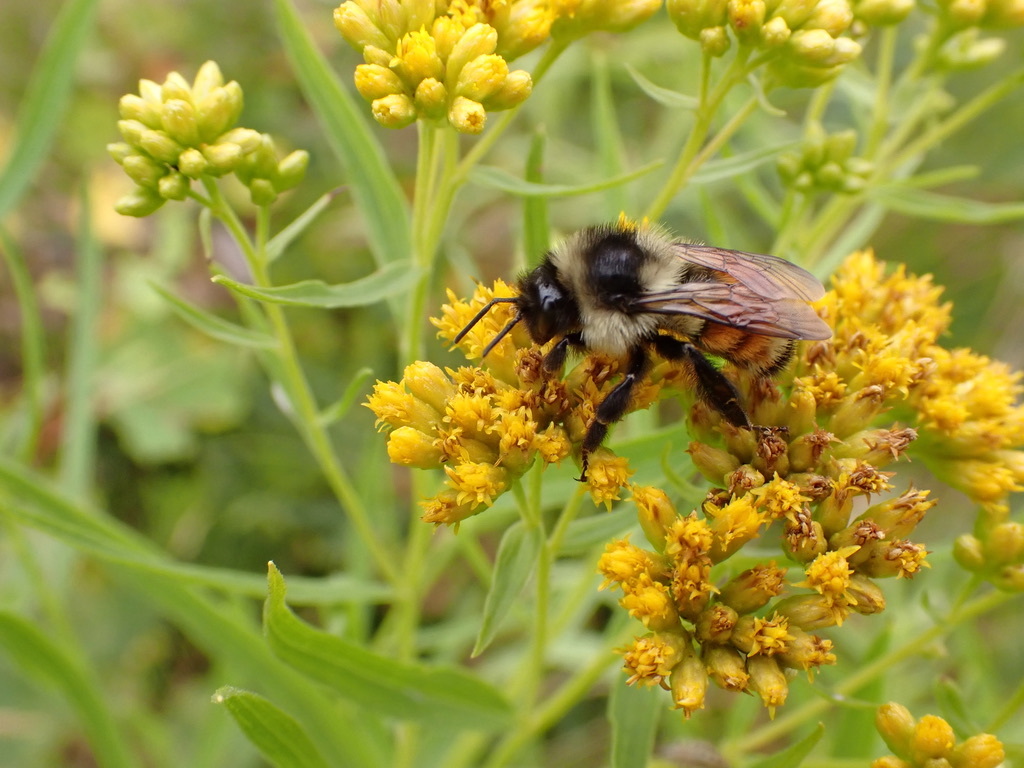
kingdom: Animalia
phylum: Arthropoda
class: Insecta
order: Hymenoptera
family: Apidae
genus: Bombus
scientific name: Bombus ternarius
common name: Tri-colored bumble bee
